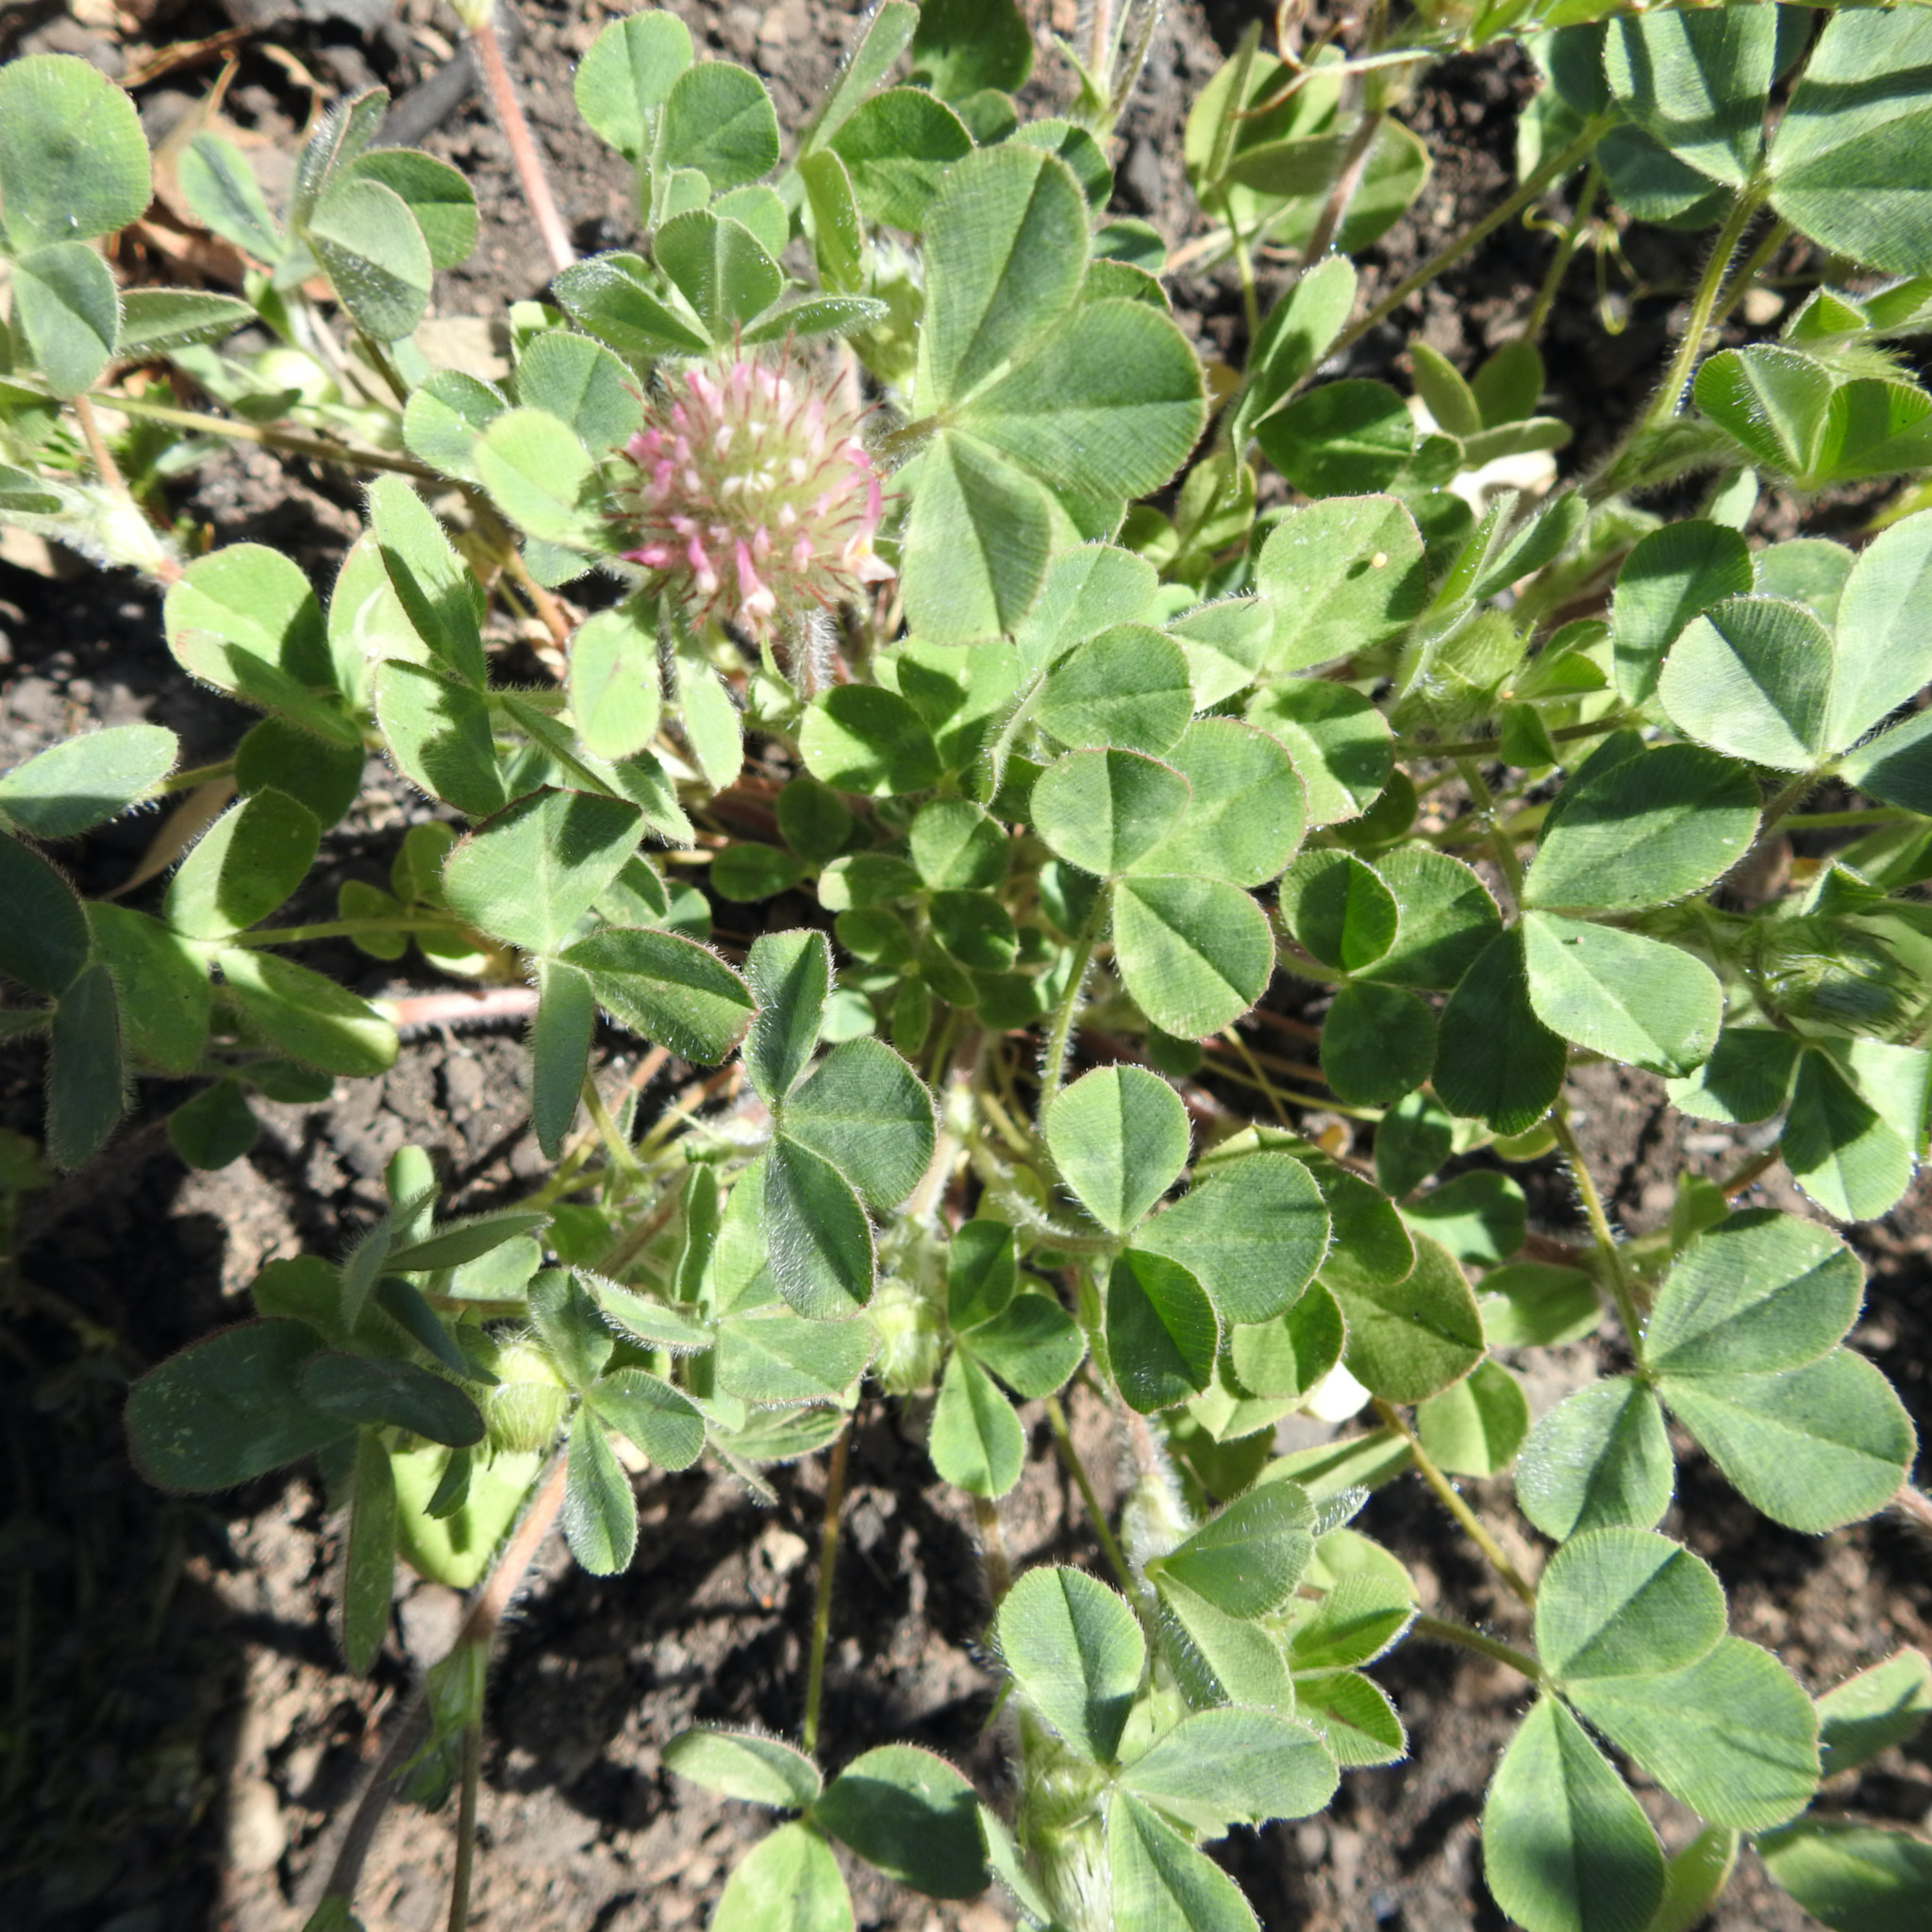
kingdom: Plantae
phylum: Tracheophyta
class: Magnoliopsida
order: Fabales
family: Fabaceae
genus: Trifolium
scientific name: Trifolium hirtum
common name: Rose clover
